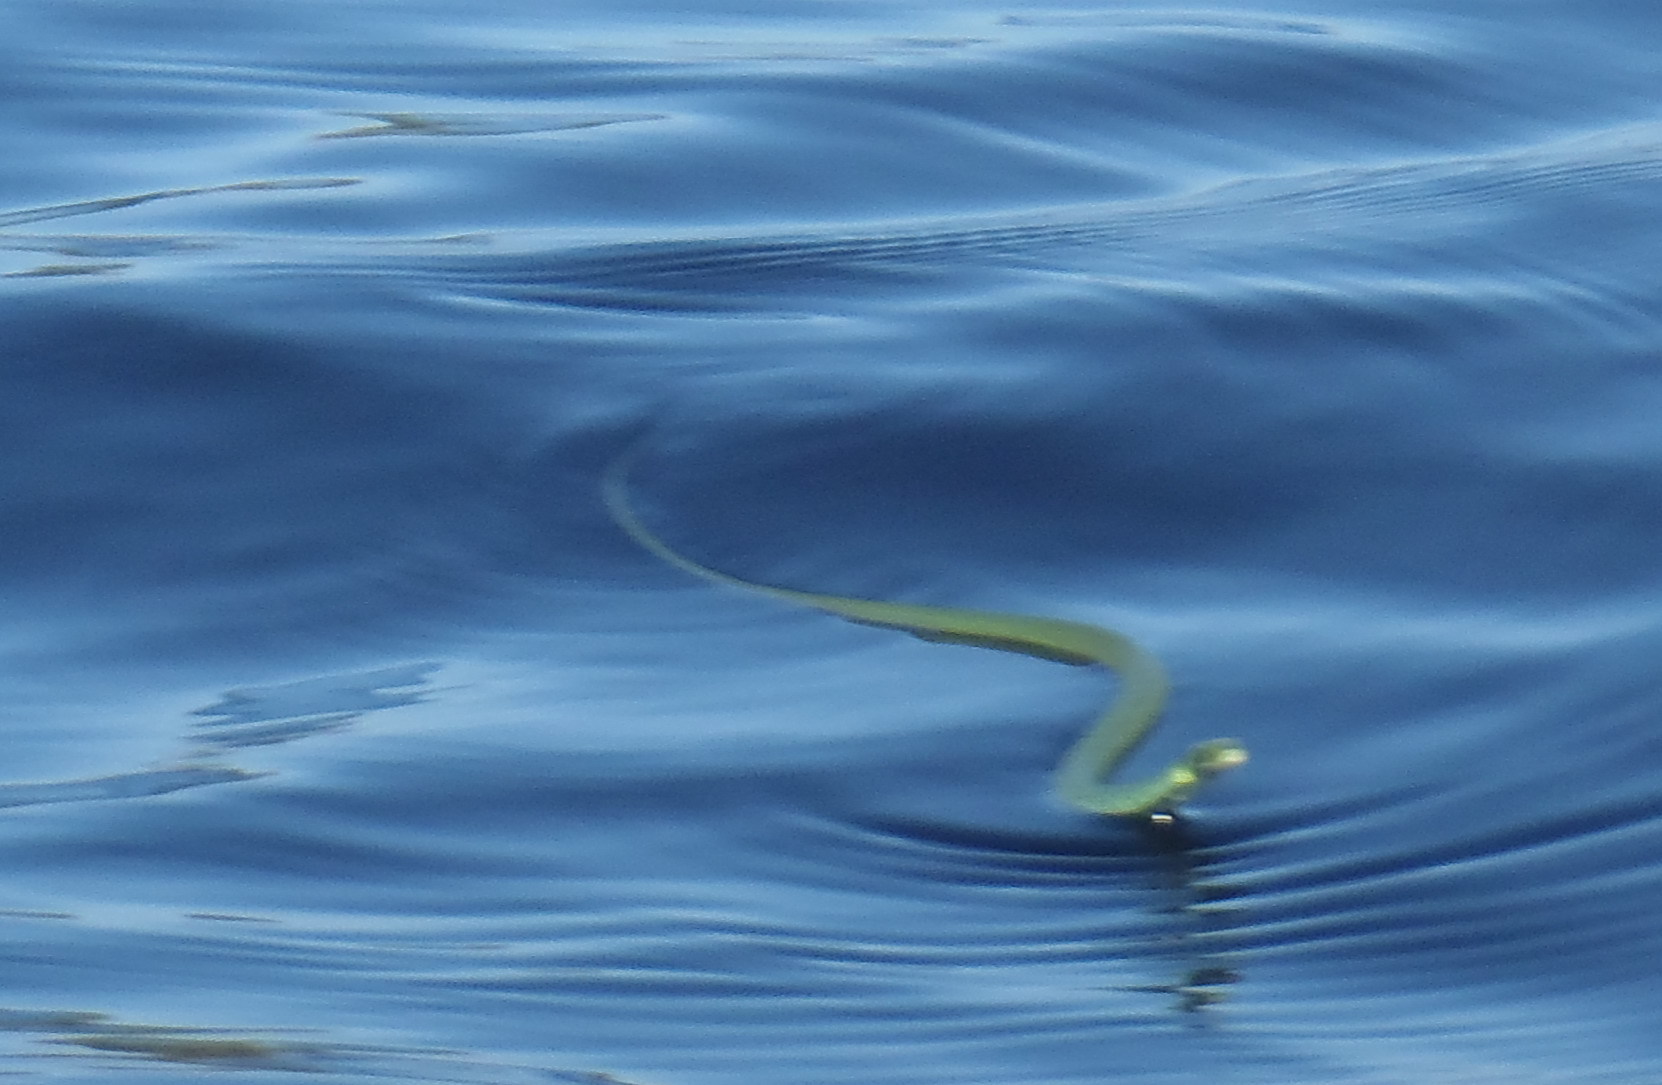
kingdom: Animalia
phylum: Chordata
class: Squamata
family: Colubridae
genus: Philothamnus
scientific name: Philothamnus hoplogaster
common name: Green water snake
